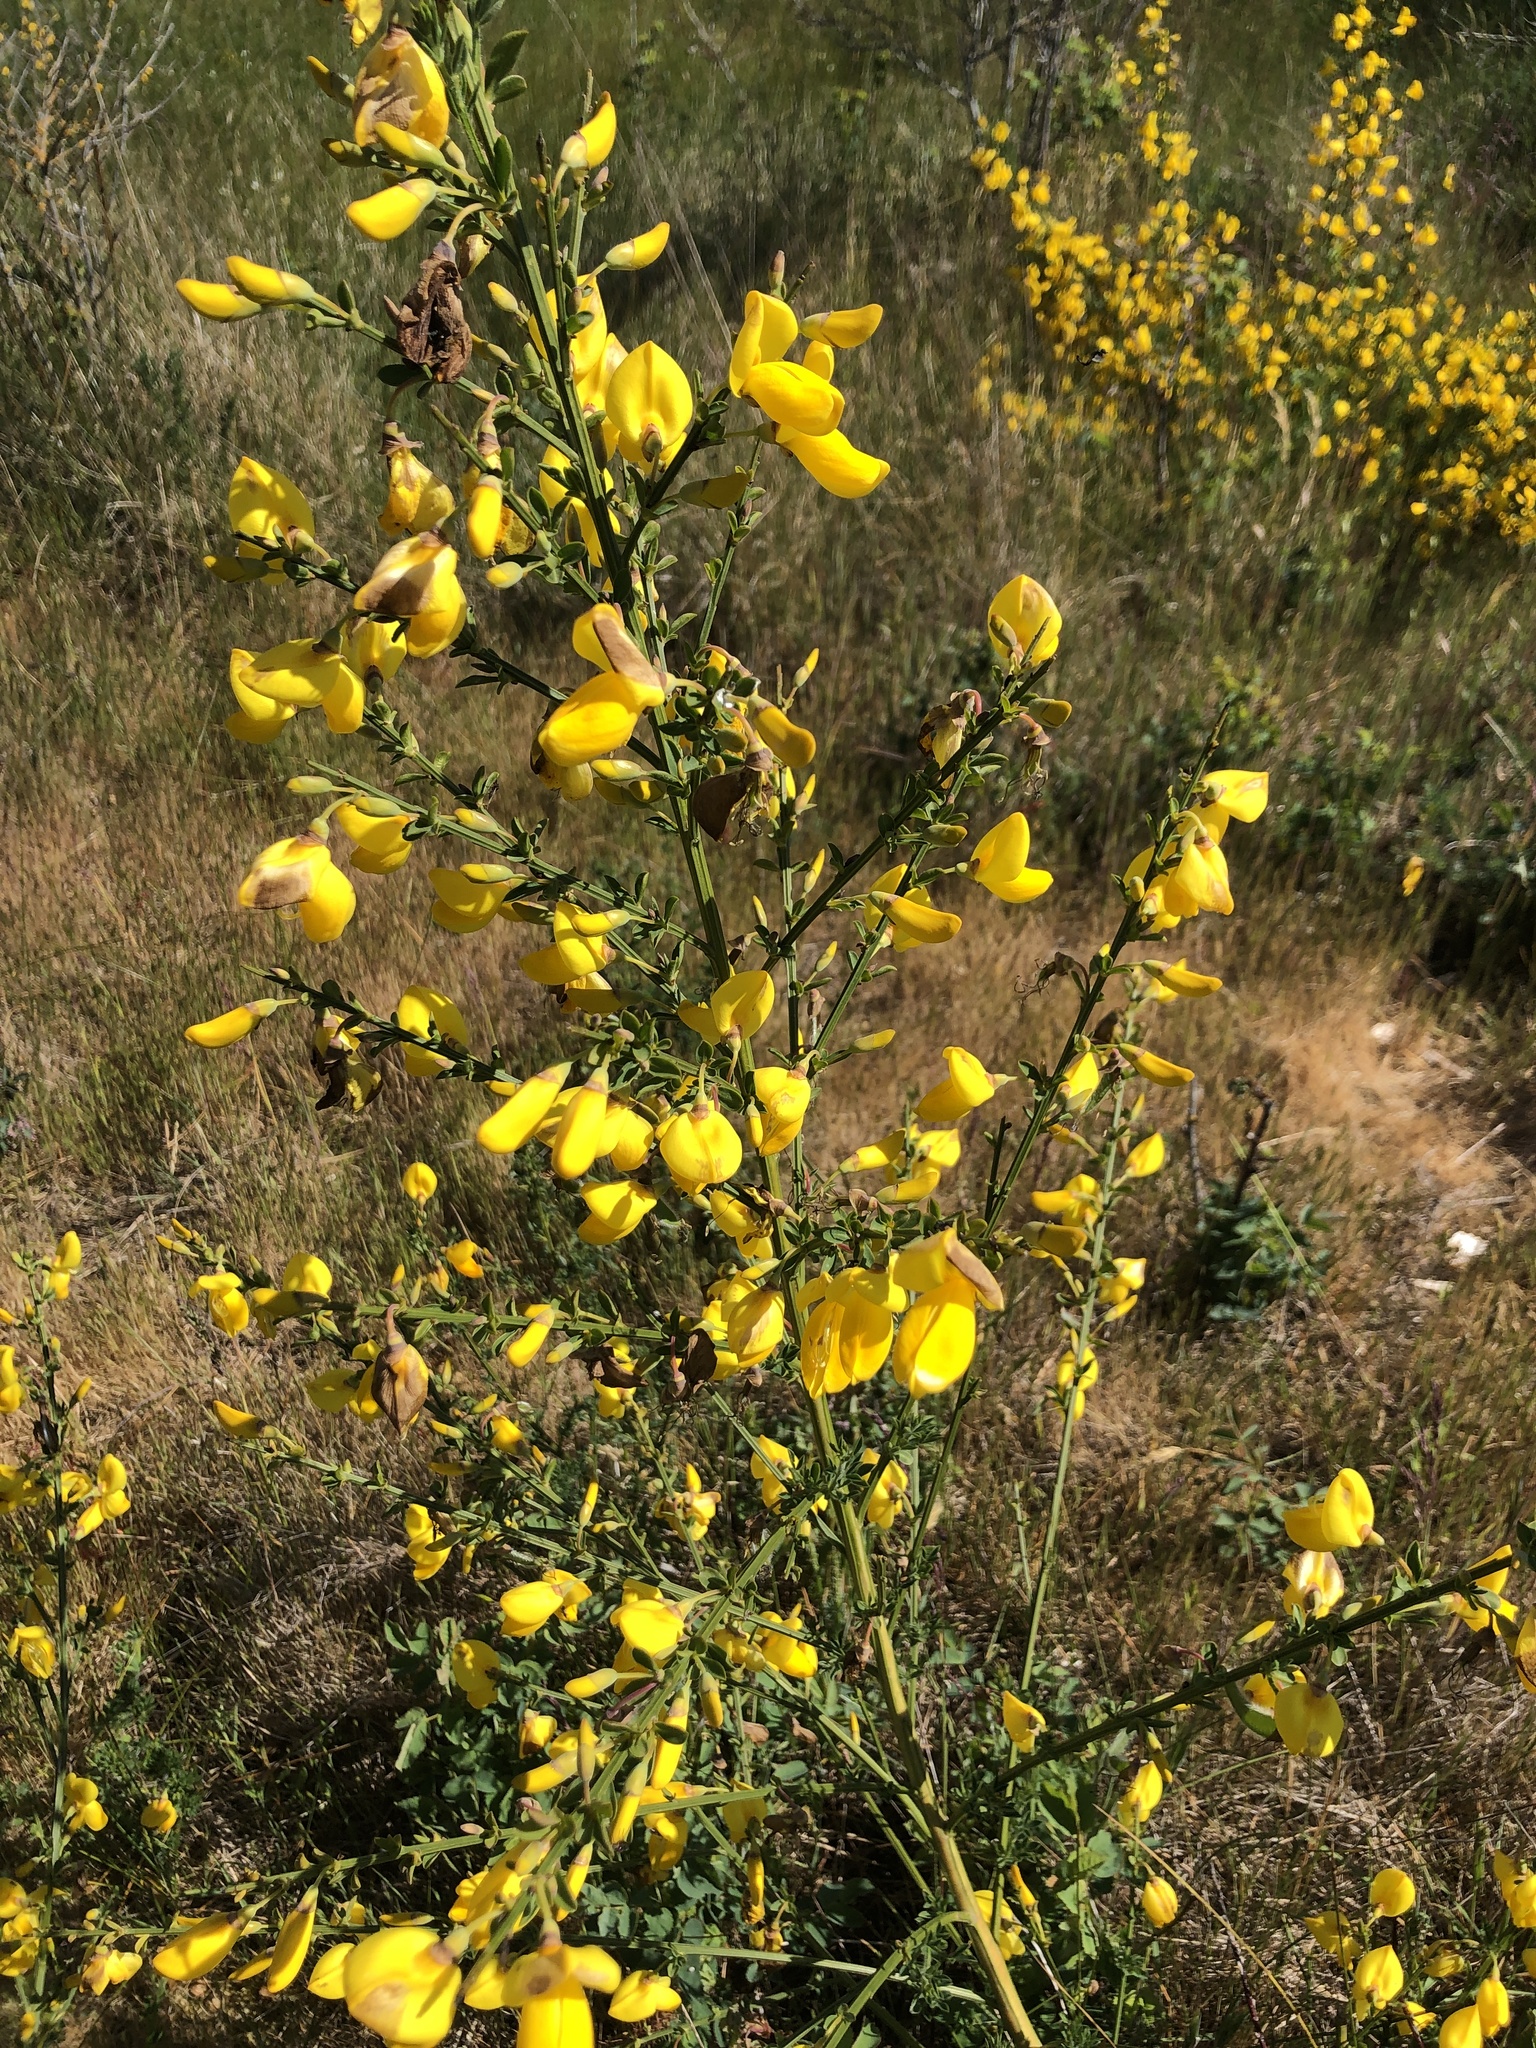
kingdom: Plantae
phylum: Tracheophyta
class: Magnoliopsida
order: Fabales
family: Fabaceae
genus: Cytisus
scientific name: Cytisus scoparius
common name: Scotch broom
